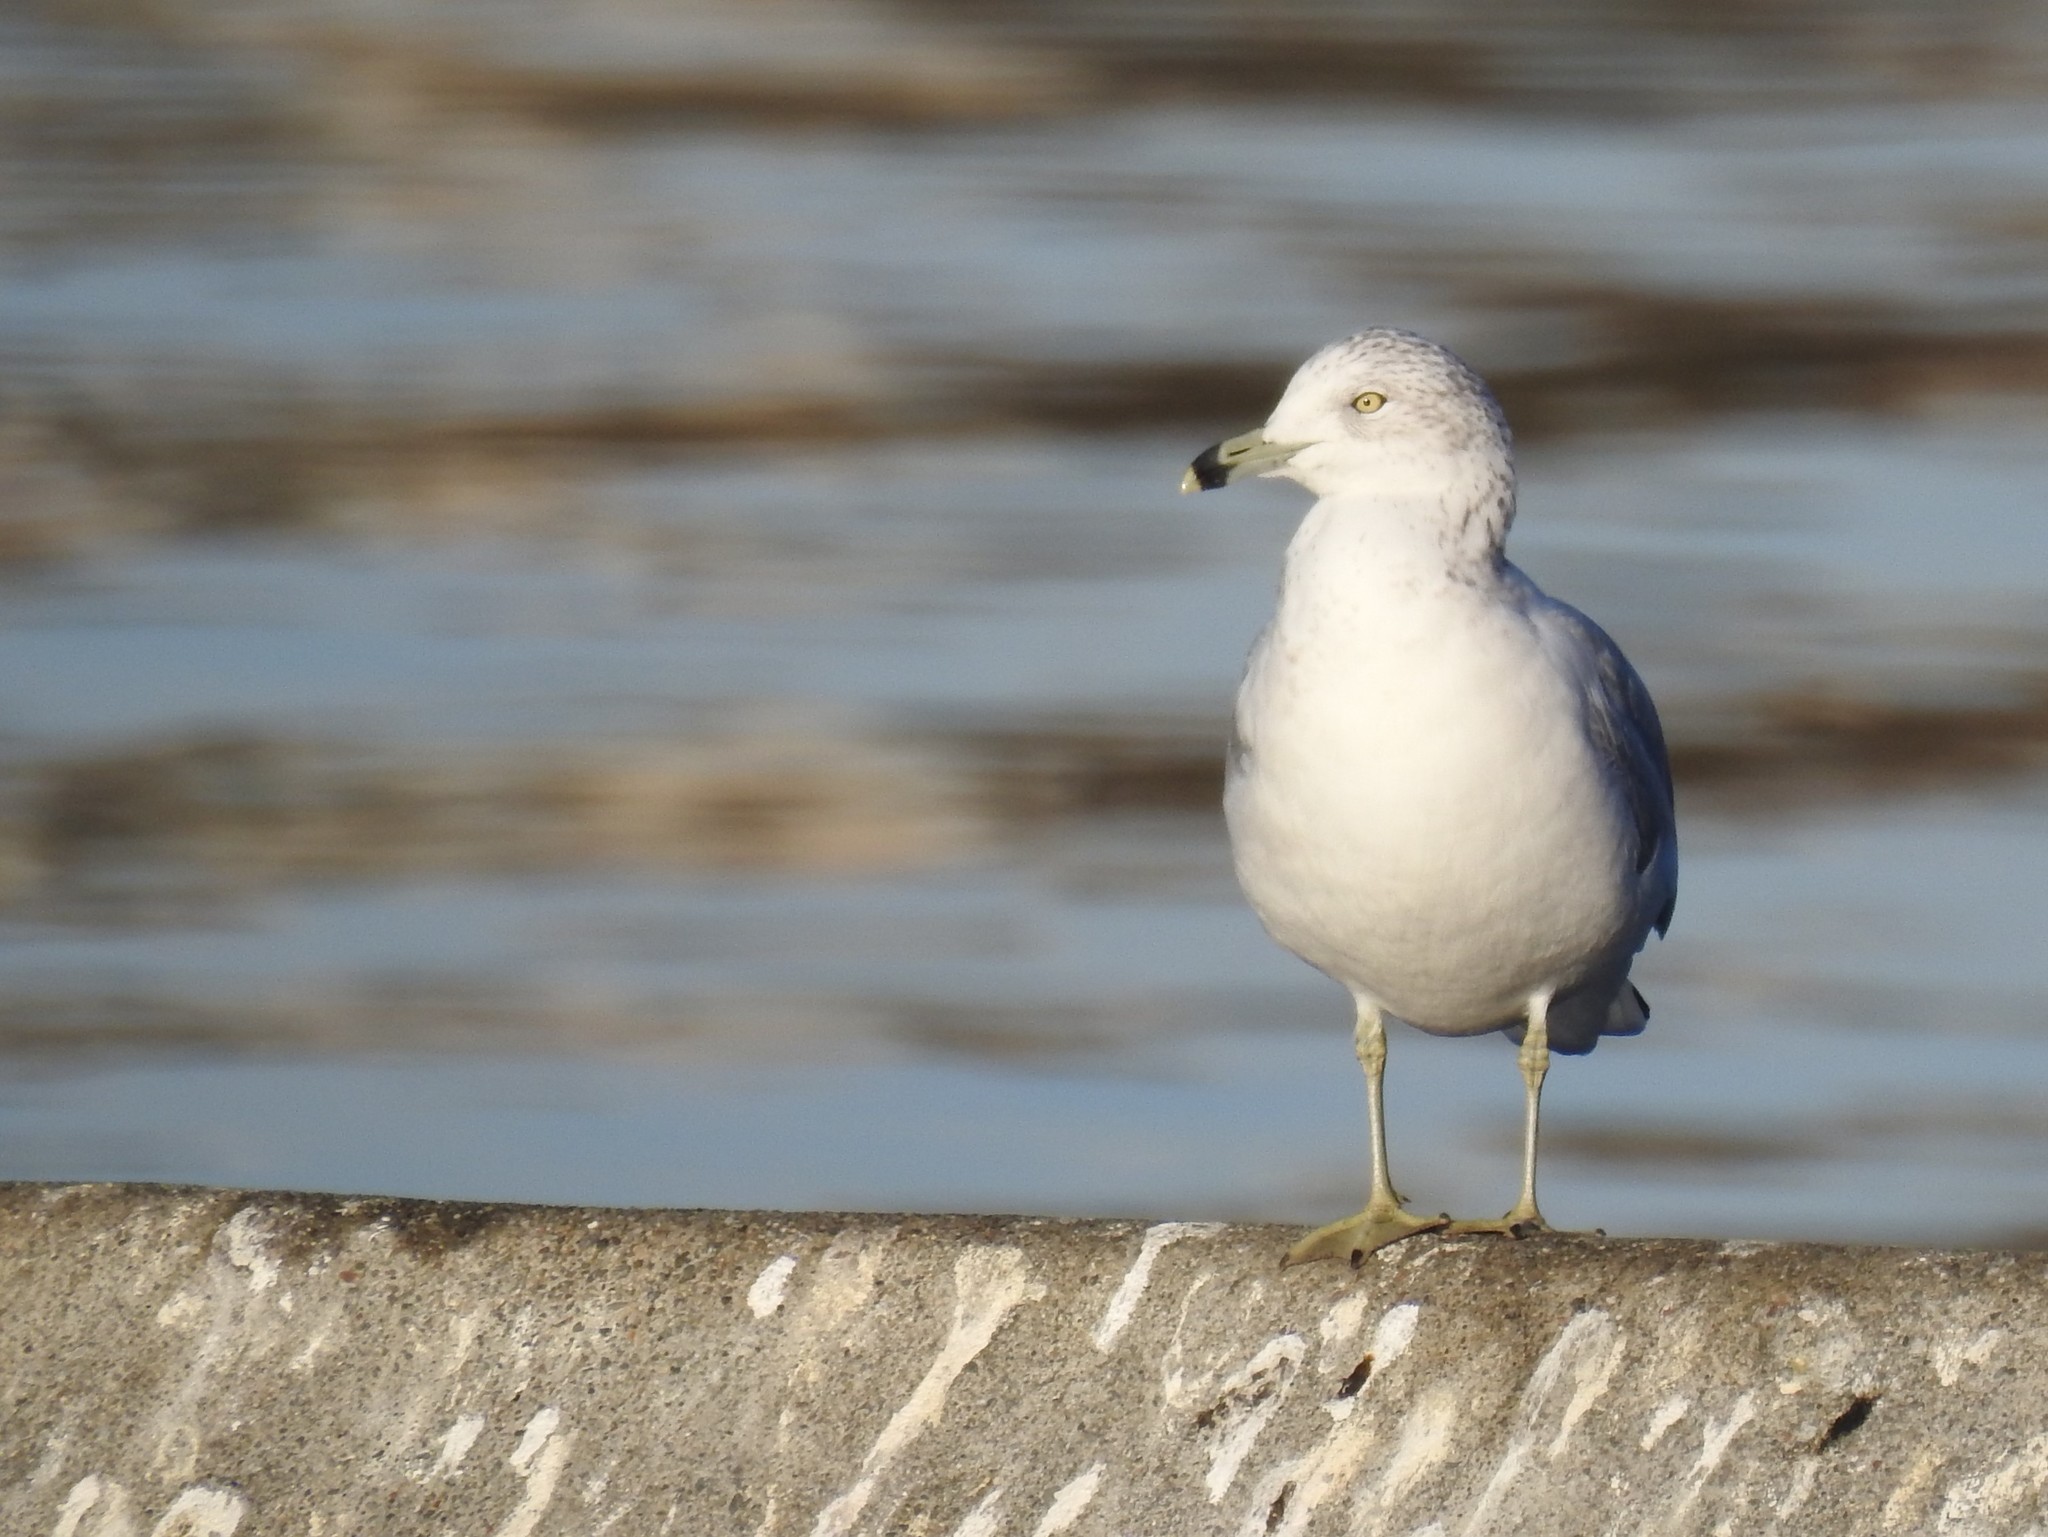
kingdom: Animalia
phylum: Chordata
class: Aves
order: Charadriiformes
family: Laridae
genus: Larus
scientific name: Larus delawarensis
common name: Ring-billed gull
